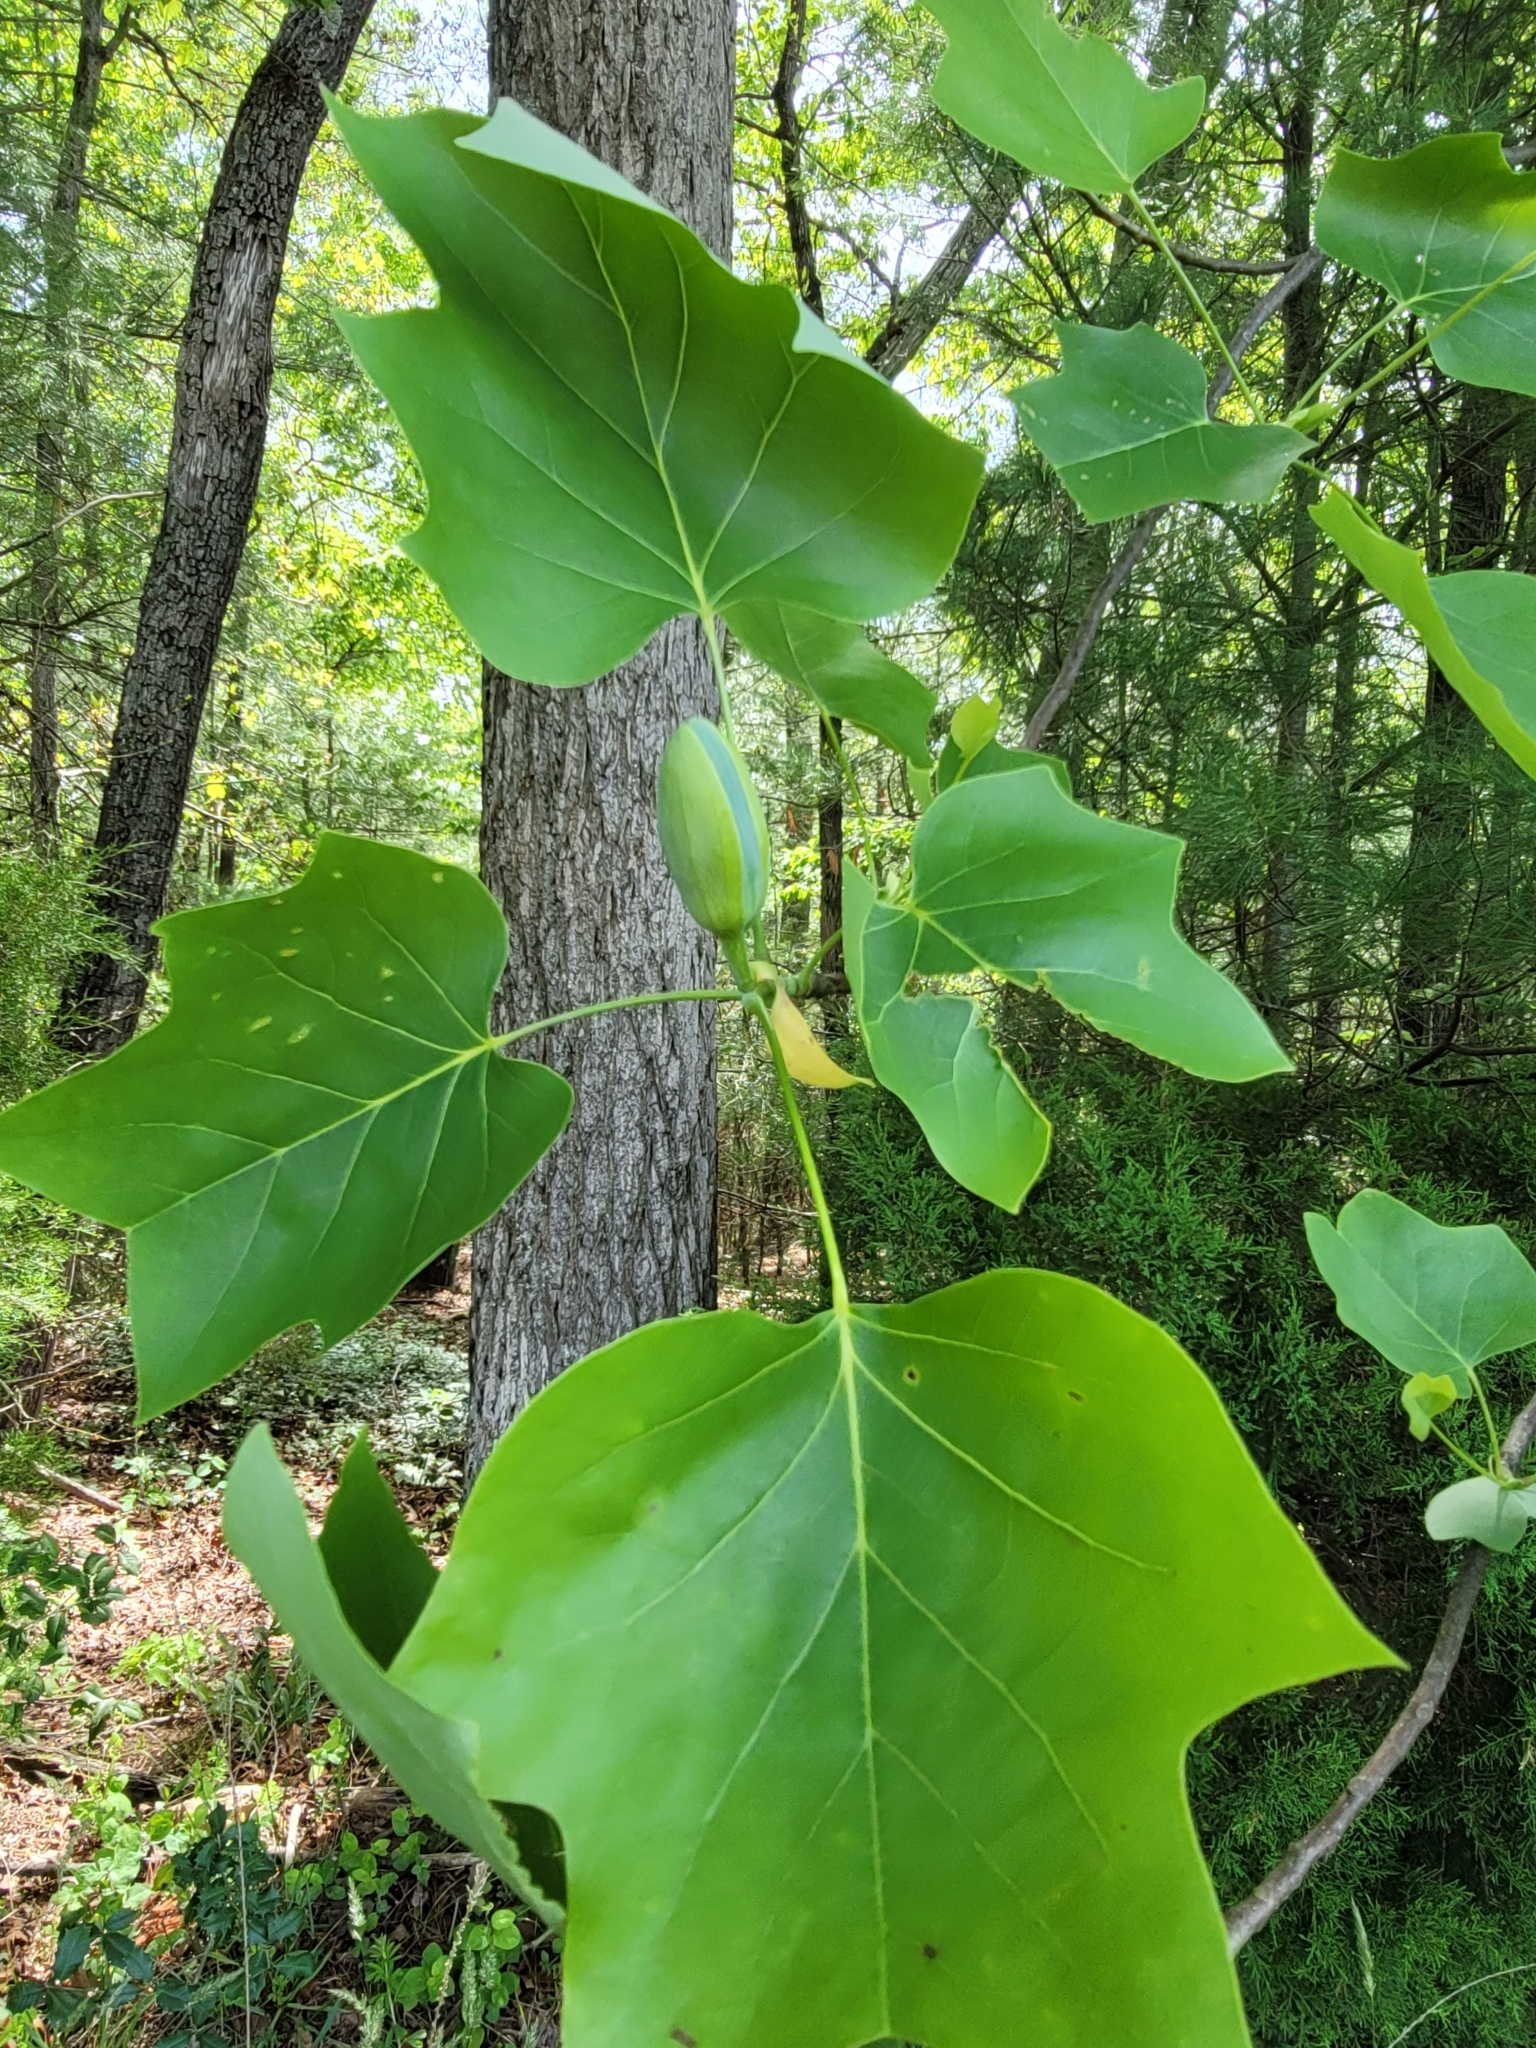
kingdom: Plantae
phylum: Tracheophyta
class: Magnoliopsida
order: Magnoliales
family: Magnoliaceae
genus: Liriodendron
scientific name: Liriodendron tulipifera
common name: Tulip tree
